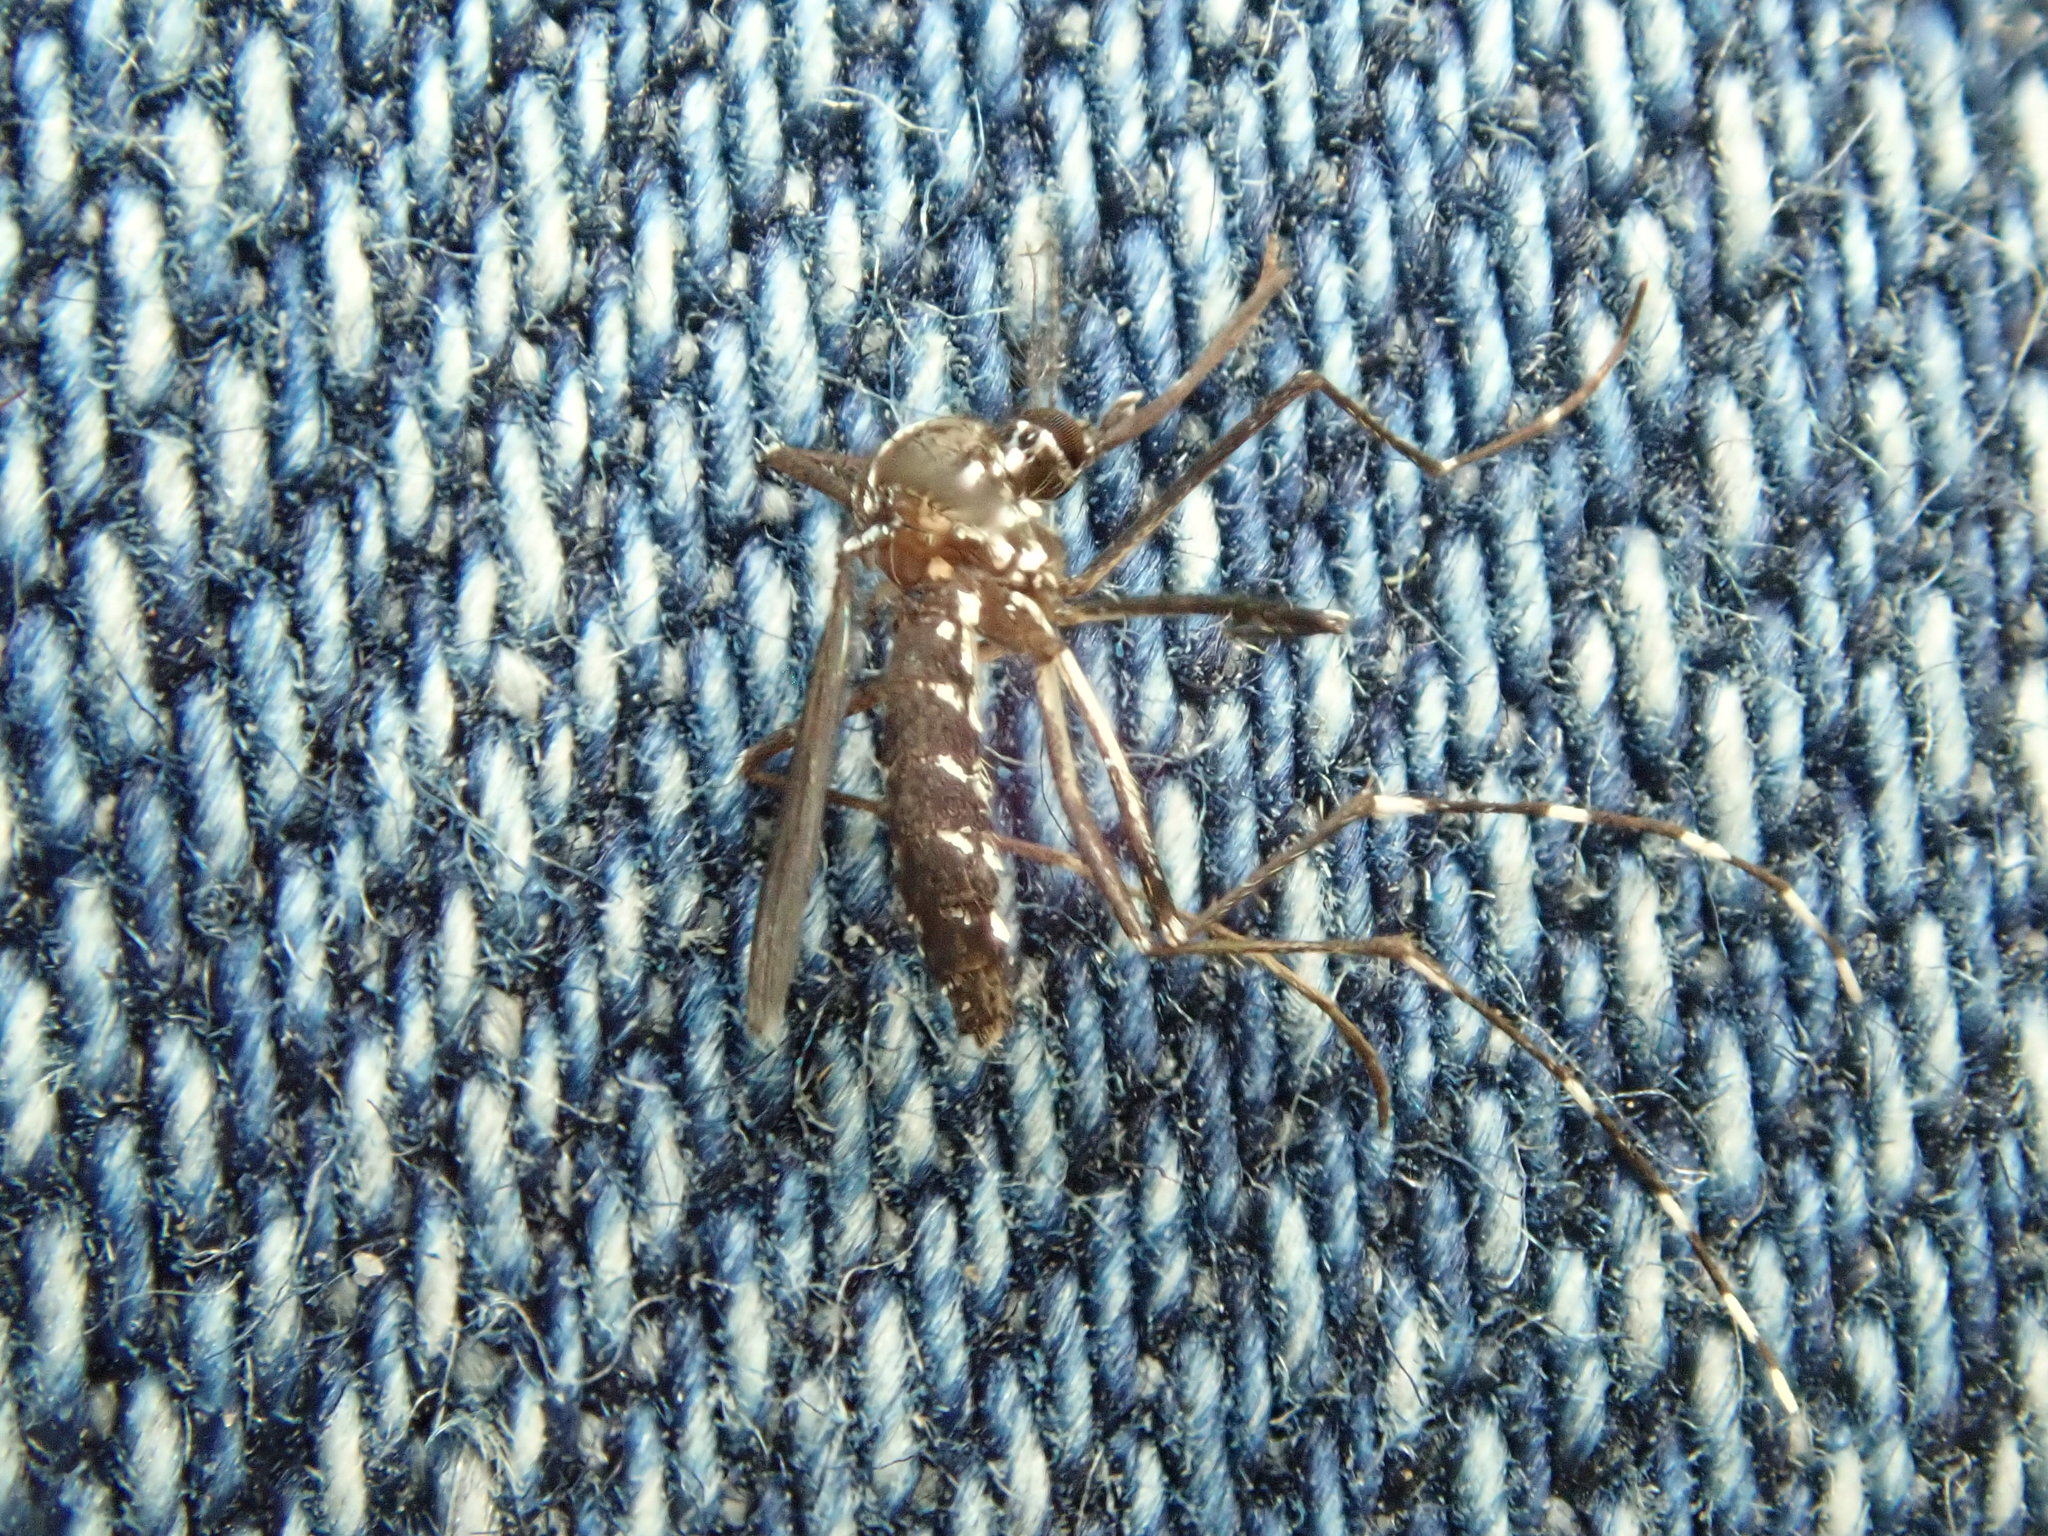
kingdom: Animalia
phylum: Arthropoda
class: Insecta
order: Diptera
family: Culicidae
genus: Aedes
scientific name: Aedes albopictus
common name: Tiger mosquito
